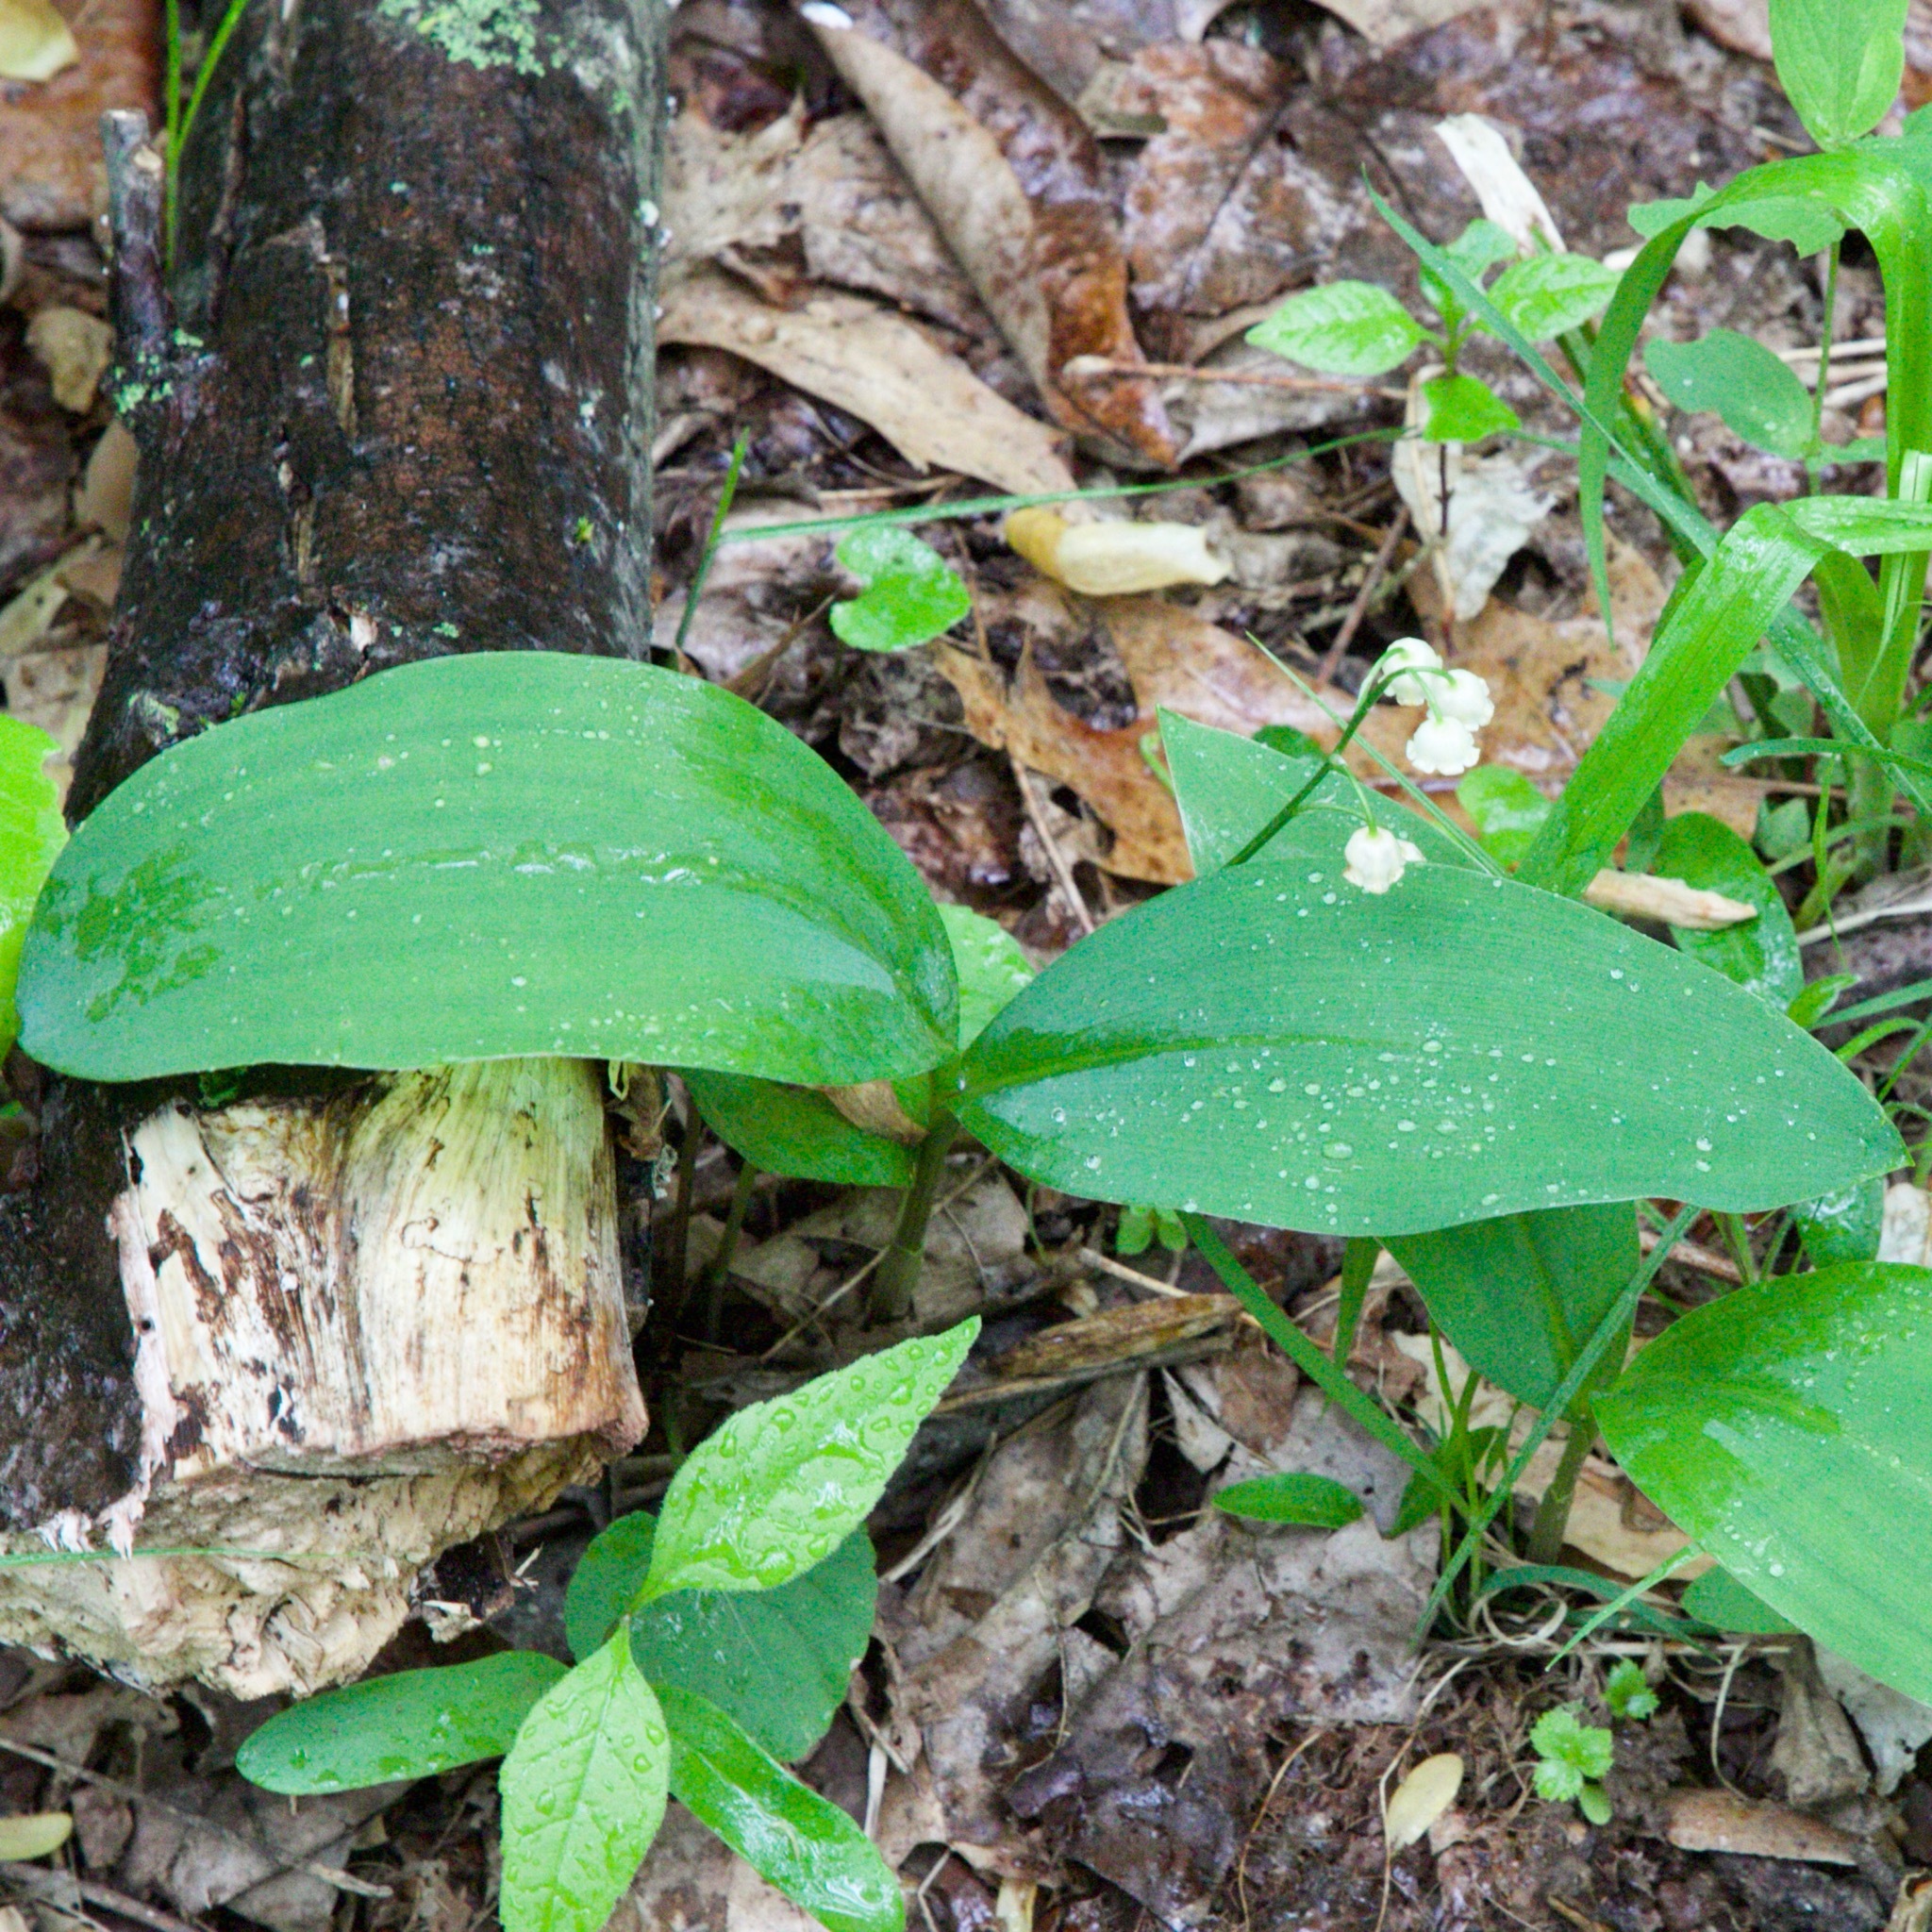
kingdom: Plantae
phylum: Tracheophyta
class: Liliopsida
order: Asparagales
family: Asparagaceae
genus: Convallaria
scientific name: Convallaria majalis
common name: Lily-of-the-valley
